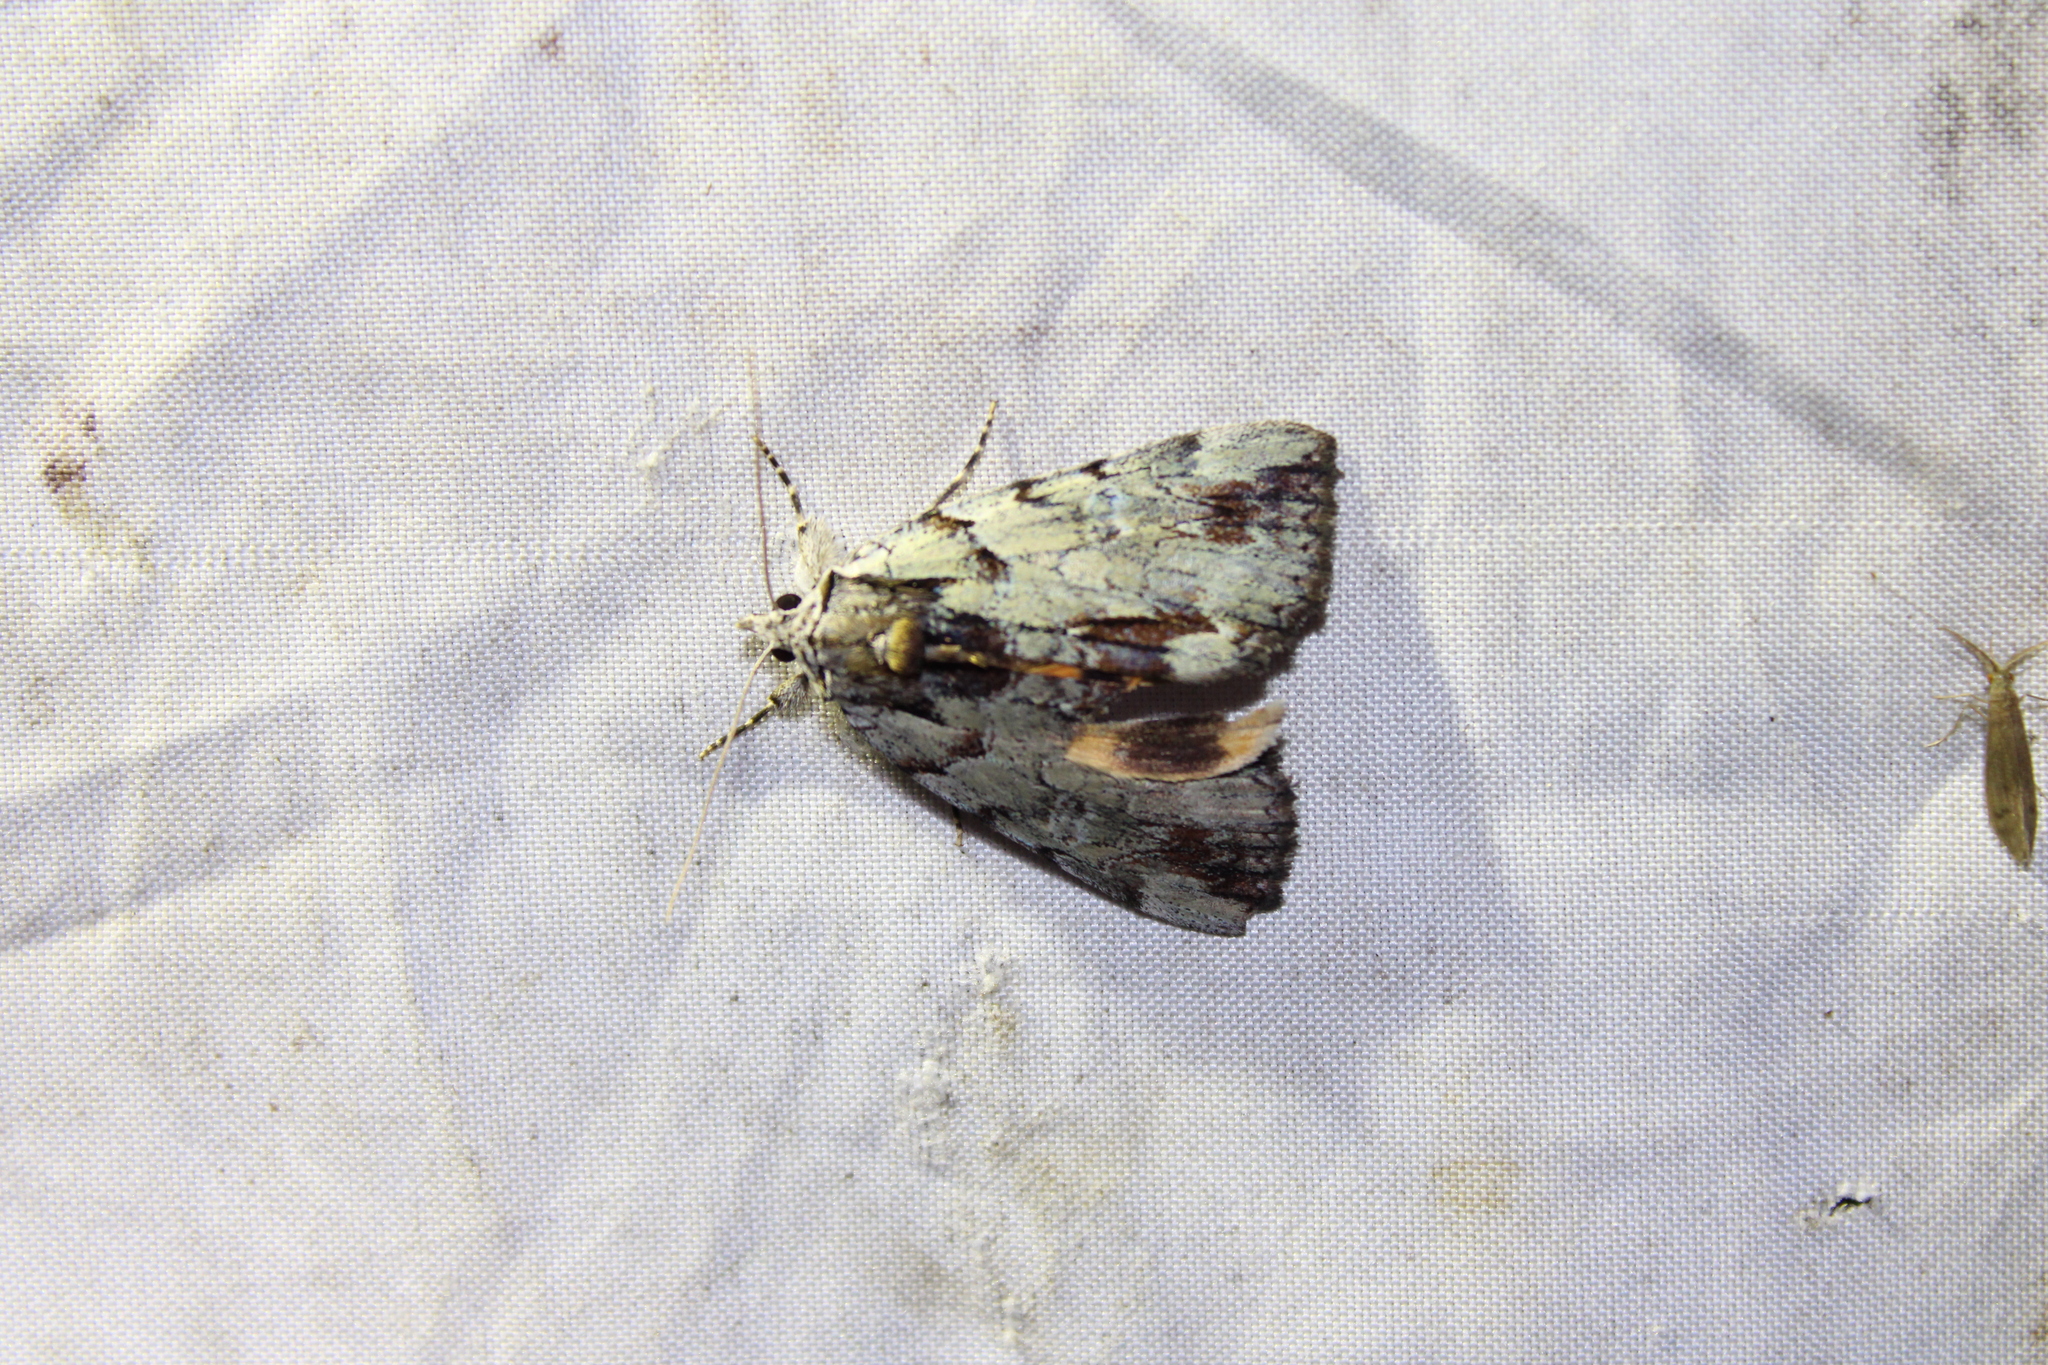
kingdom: Animalia
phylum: Arthropoda
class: Insecta
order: Lepidoptera
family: Erebidae
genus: Catocala
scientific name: Catocala praeclara
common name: Praeclara underwing
